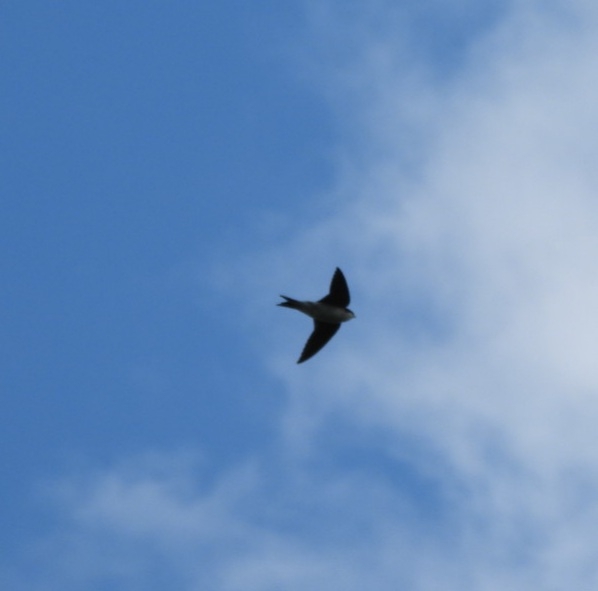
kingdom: Animalia
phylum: Chordata
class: Aves
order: Passeriformes
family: Hirundinidae
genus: Delichon
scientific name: Delichon urbicum
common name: Common house martin
